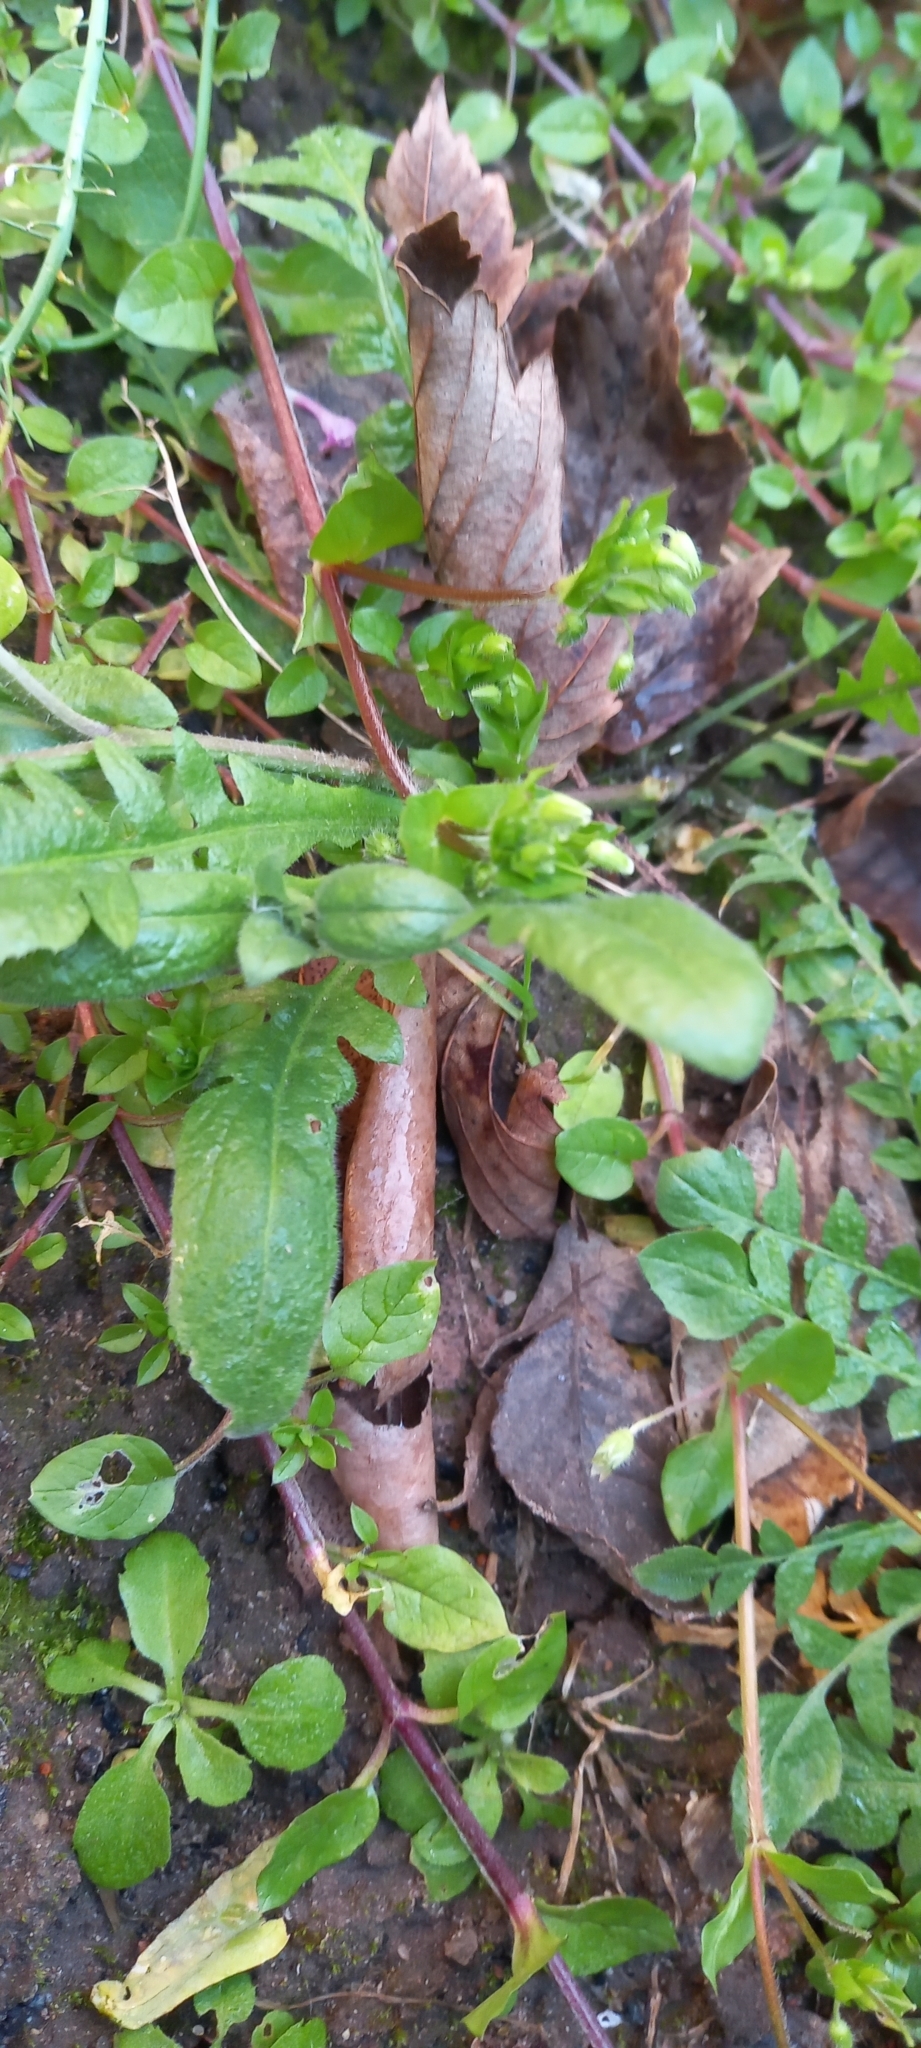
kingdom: Plantae
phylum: Tracheophyta
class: Magnoliopsida
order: Brassicales
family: Brassicaceae
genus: Capsella
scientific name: Capsella bursa-pastoris
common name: Shepherd's purse
